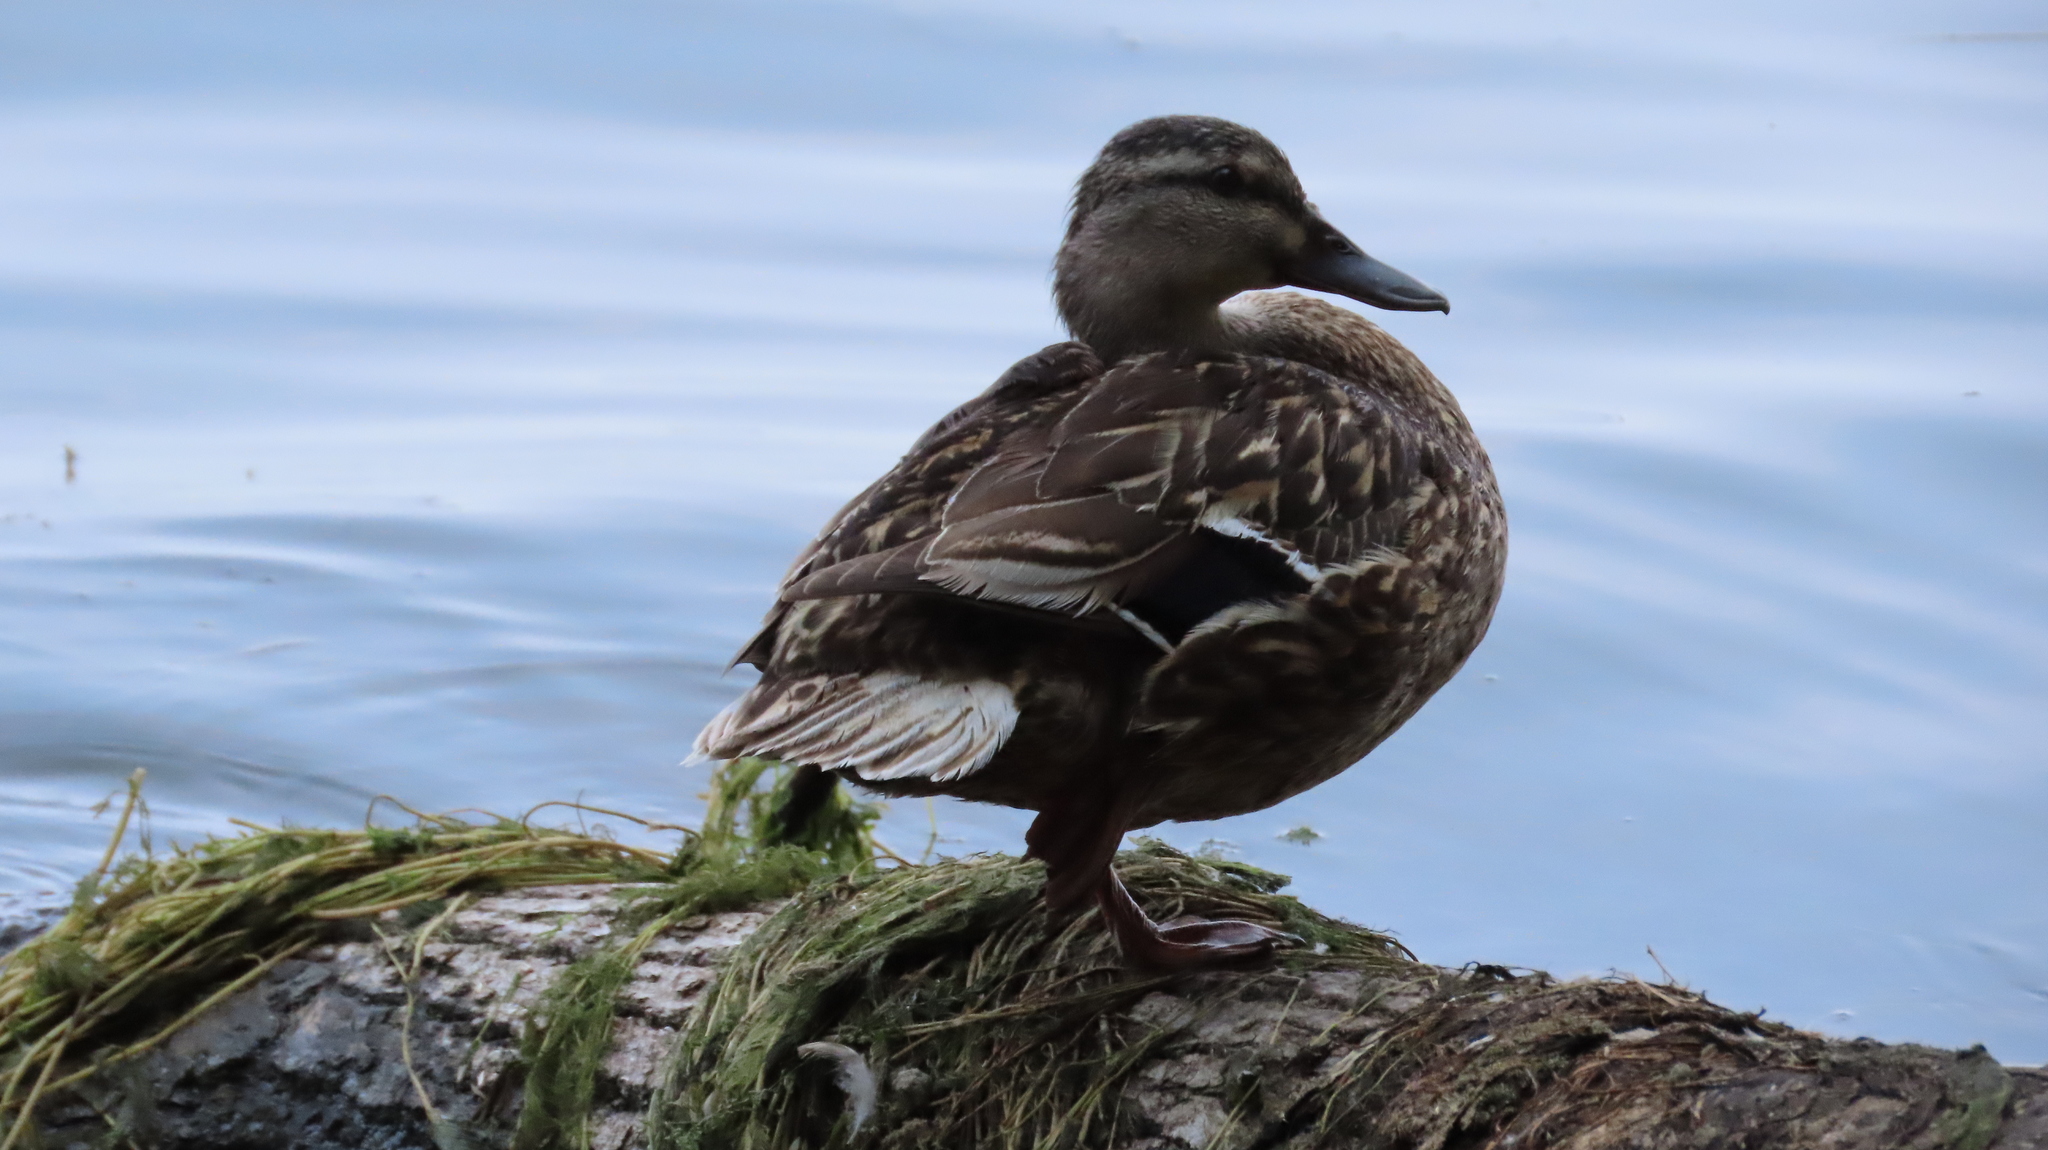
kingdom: Animalia
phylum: Chordata
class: Aves
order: Anseriformes
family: Anatidae
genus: Anas
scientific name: Anas platyrhynchos
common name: Mallard
